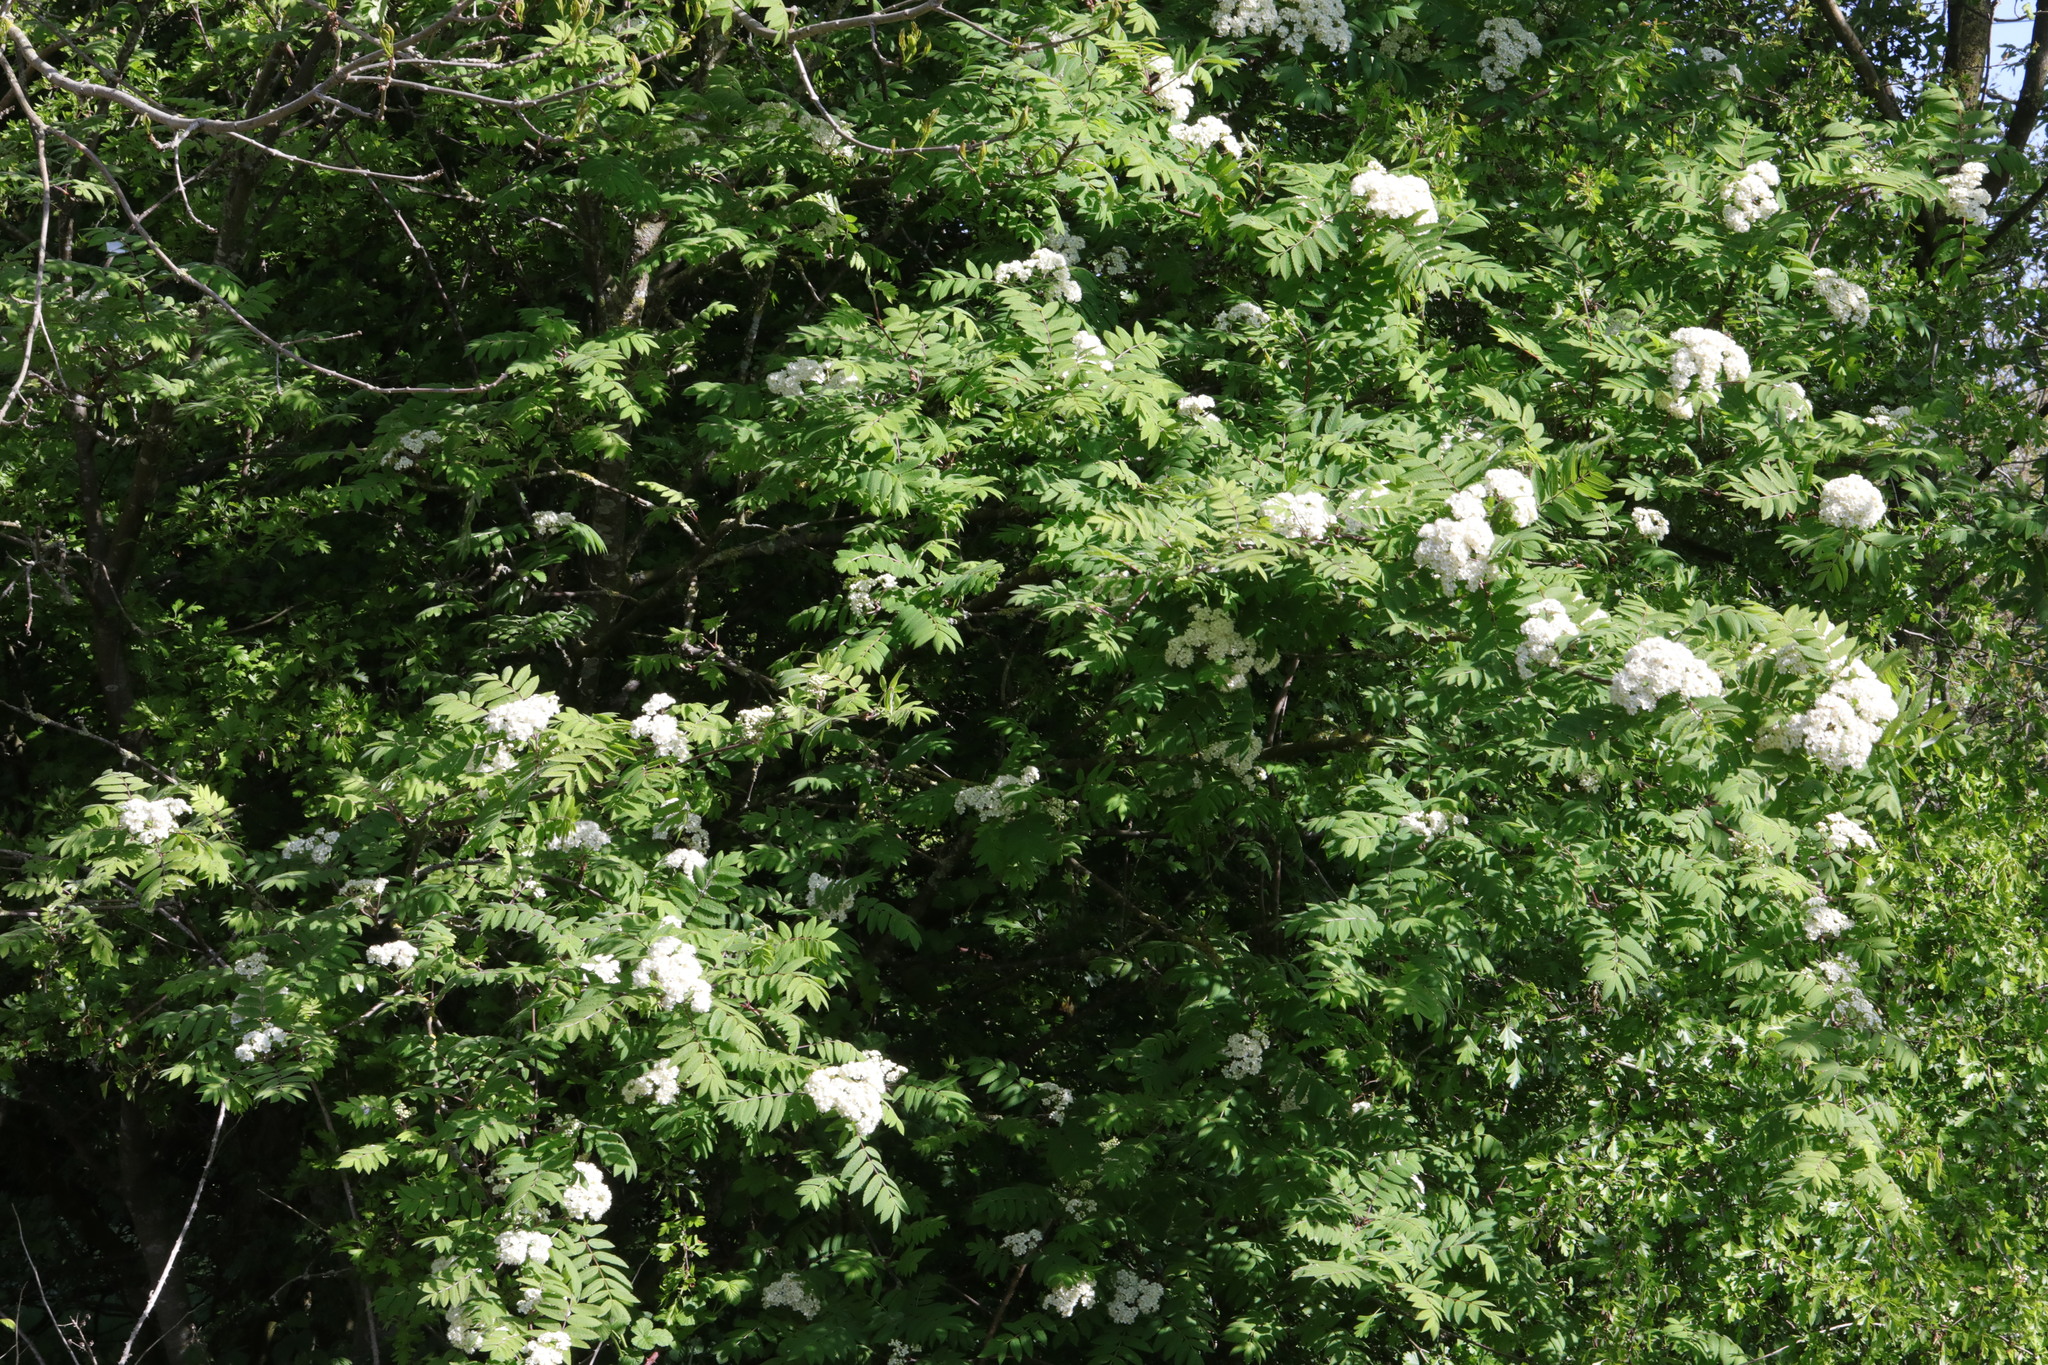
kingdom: Plantae
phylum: Tracheophyta
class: Magnoliopsida
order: Rosales
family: Rosaceae
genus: Sorbus
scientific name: Sorbus aucuparia
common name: Rowan
